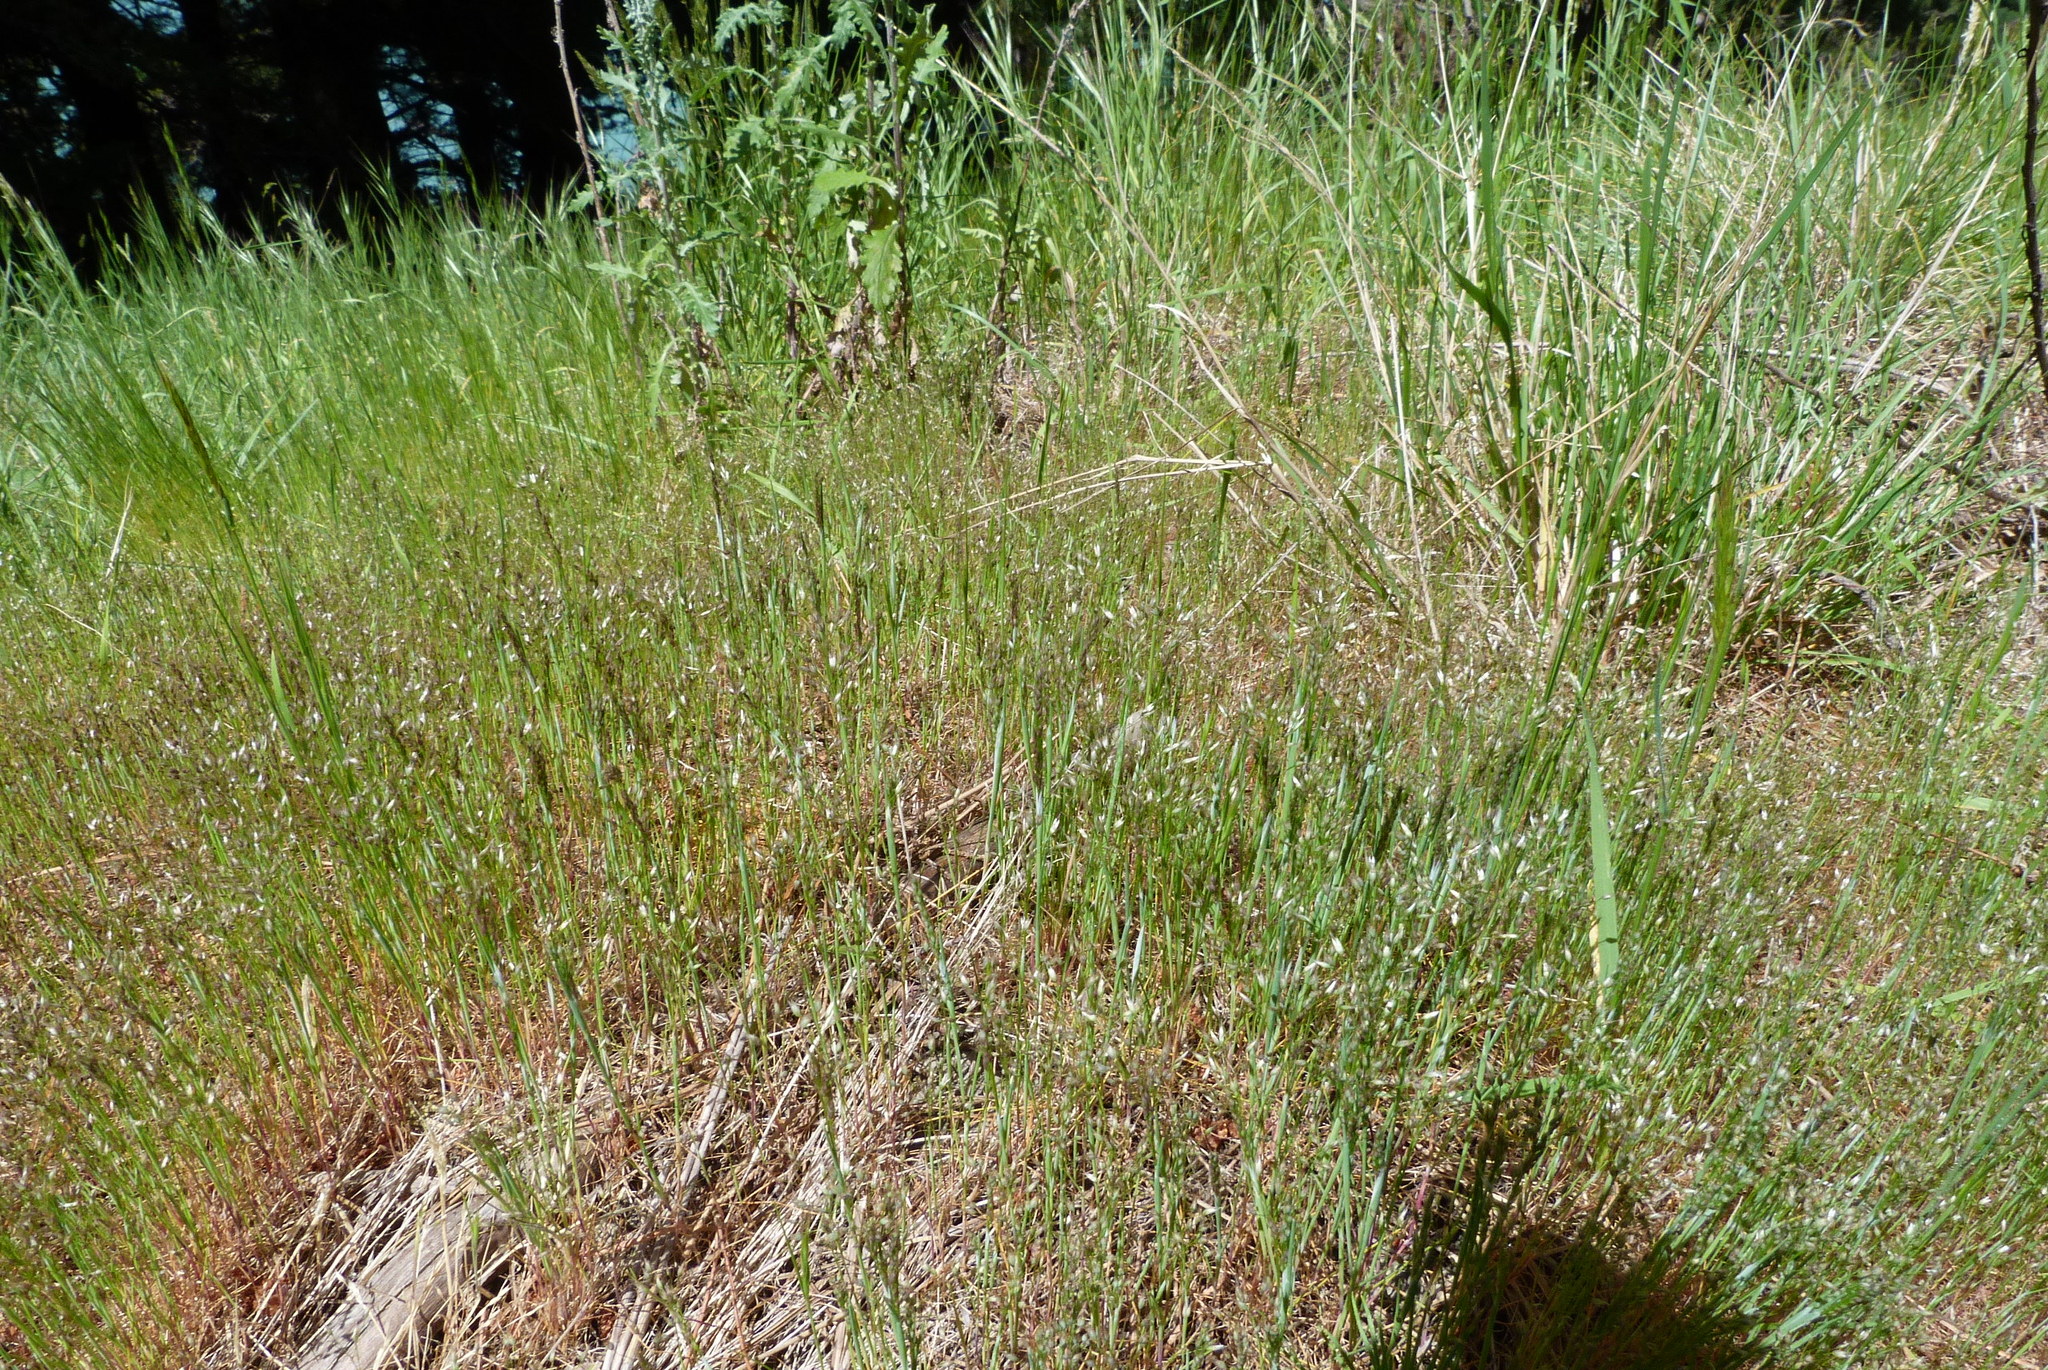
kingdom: Plantae
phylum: Tracheophyta
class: Liliopsida
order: Poales
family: Poaceae
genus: Aira
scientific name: Aira caryophyllea
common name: Silver hairgrass
